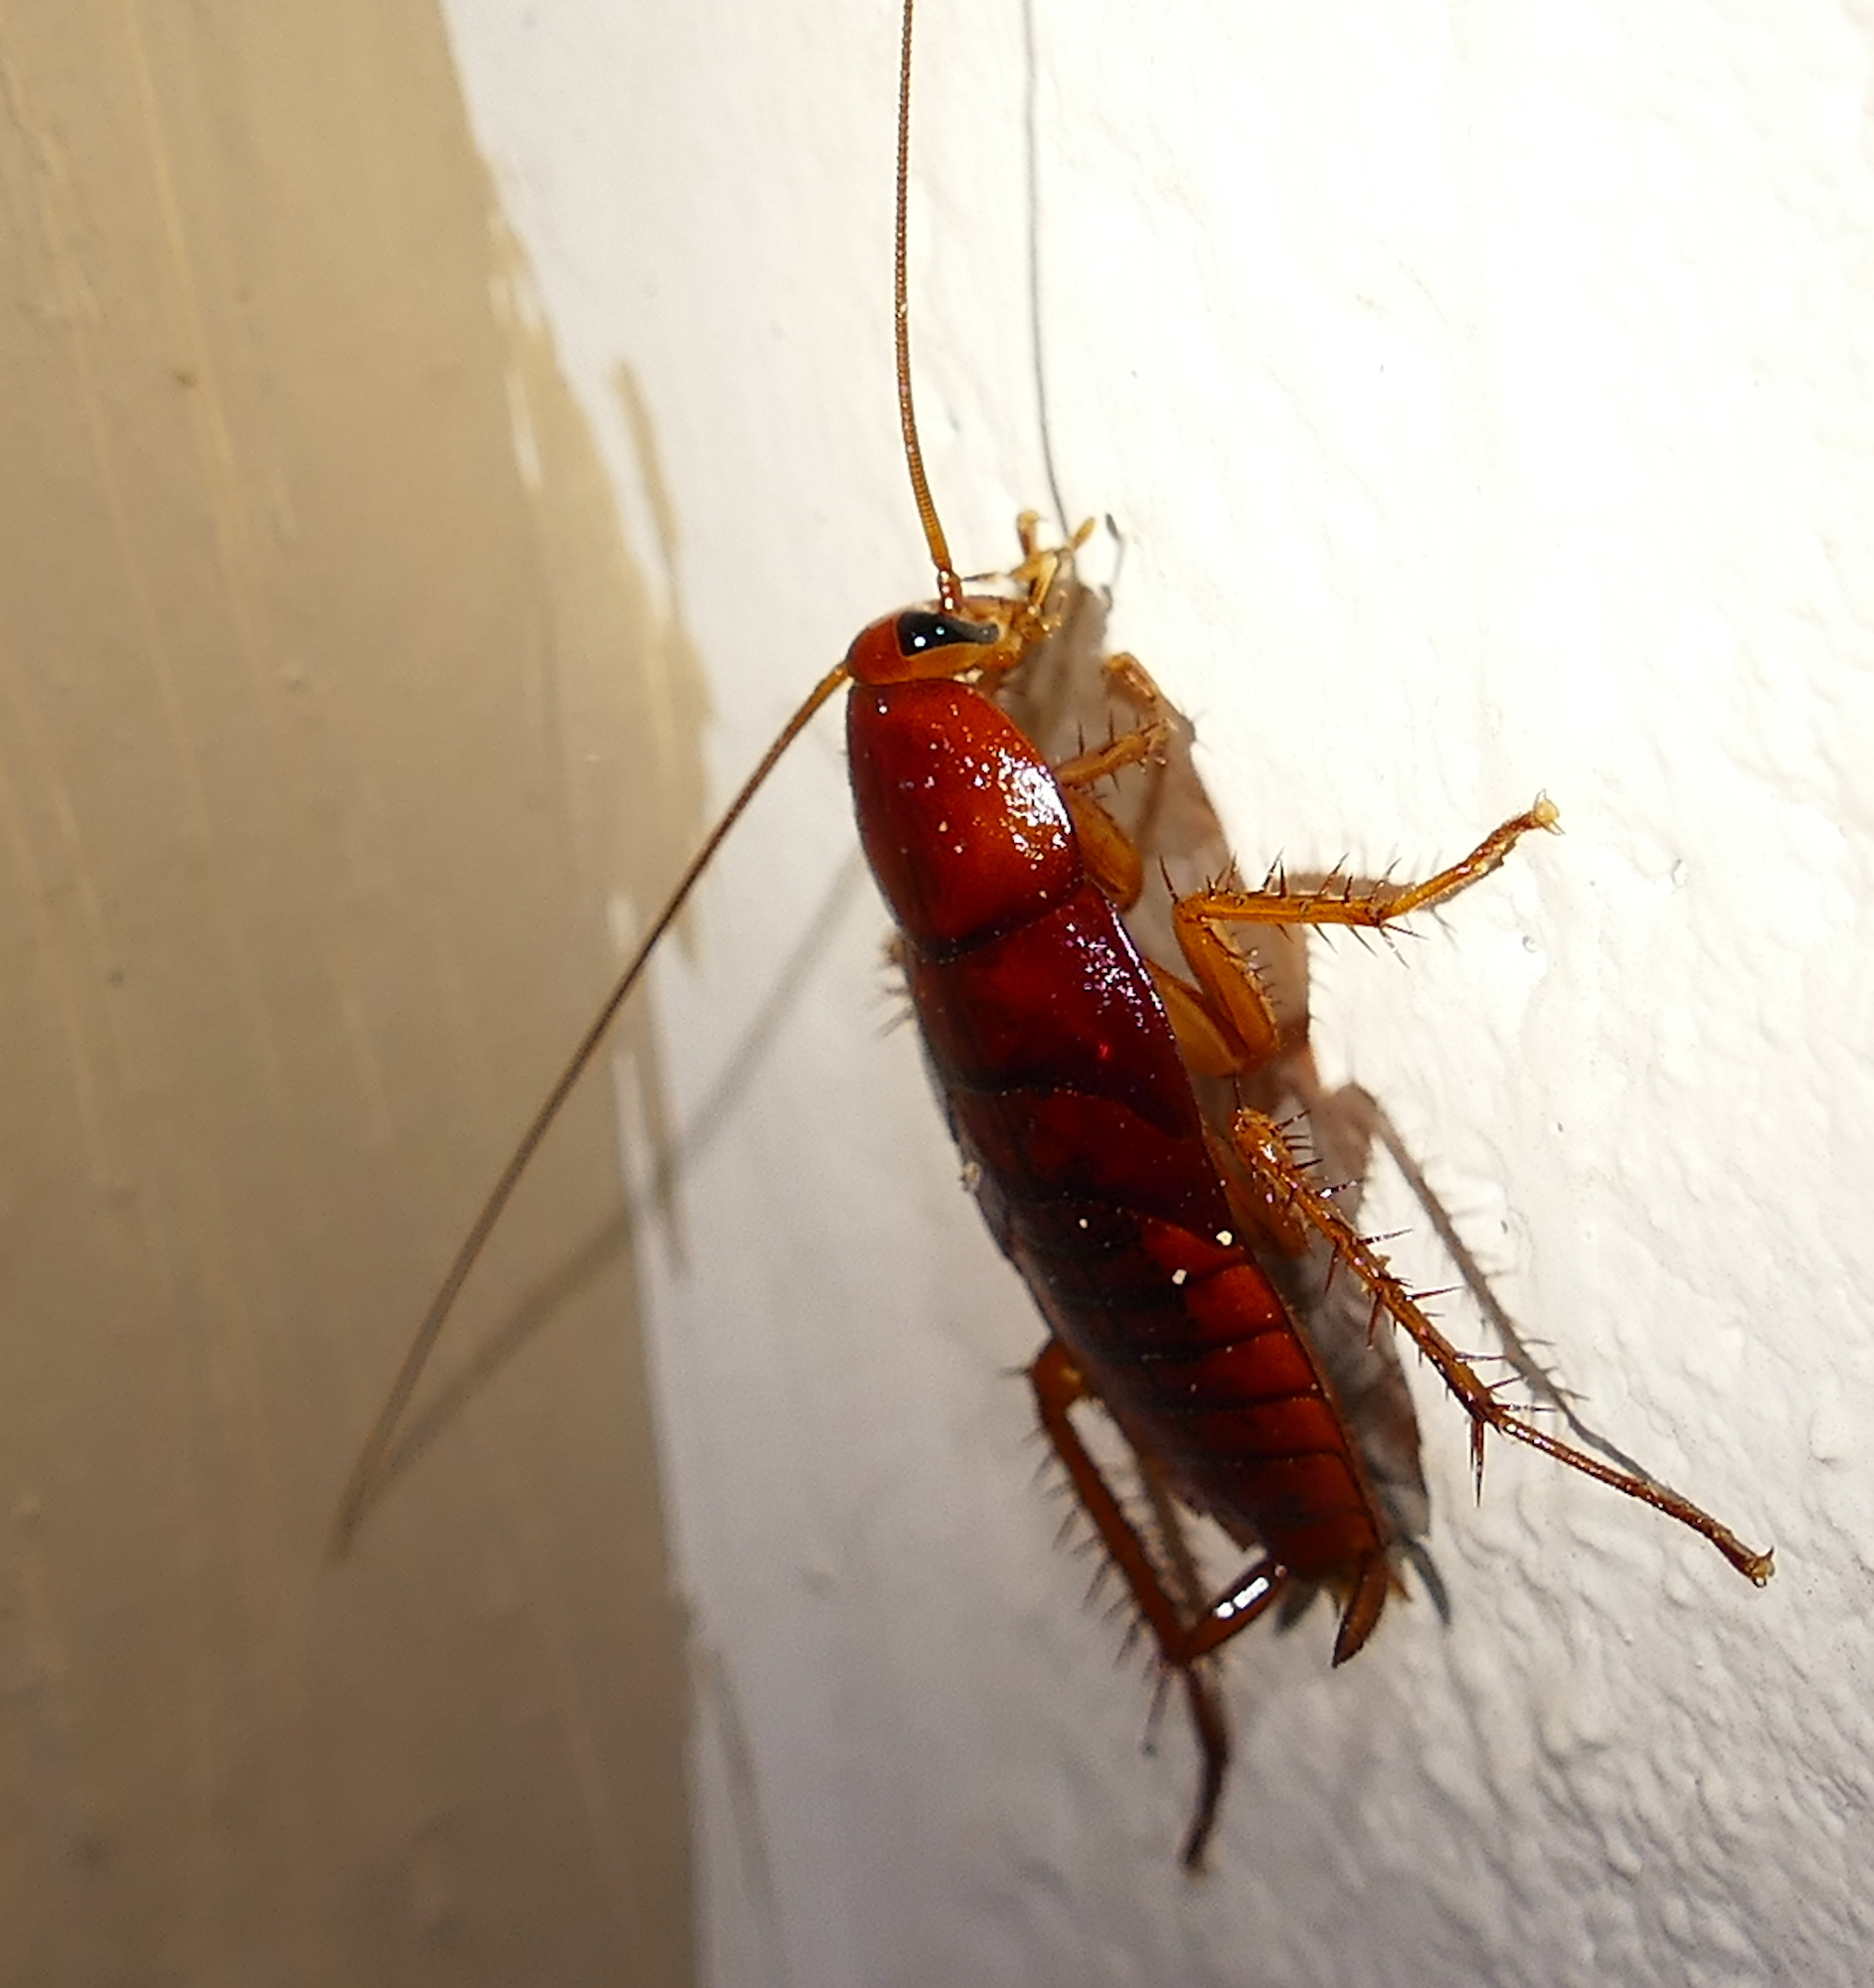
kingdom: Animalia
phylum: Arthropoda
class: Insecta
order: Blattodea
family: Blattidae
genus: Periplaneta
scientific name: Periplaneta fuliginosa
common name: Smokeybrown cockroad
